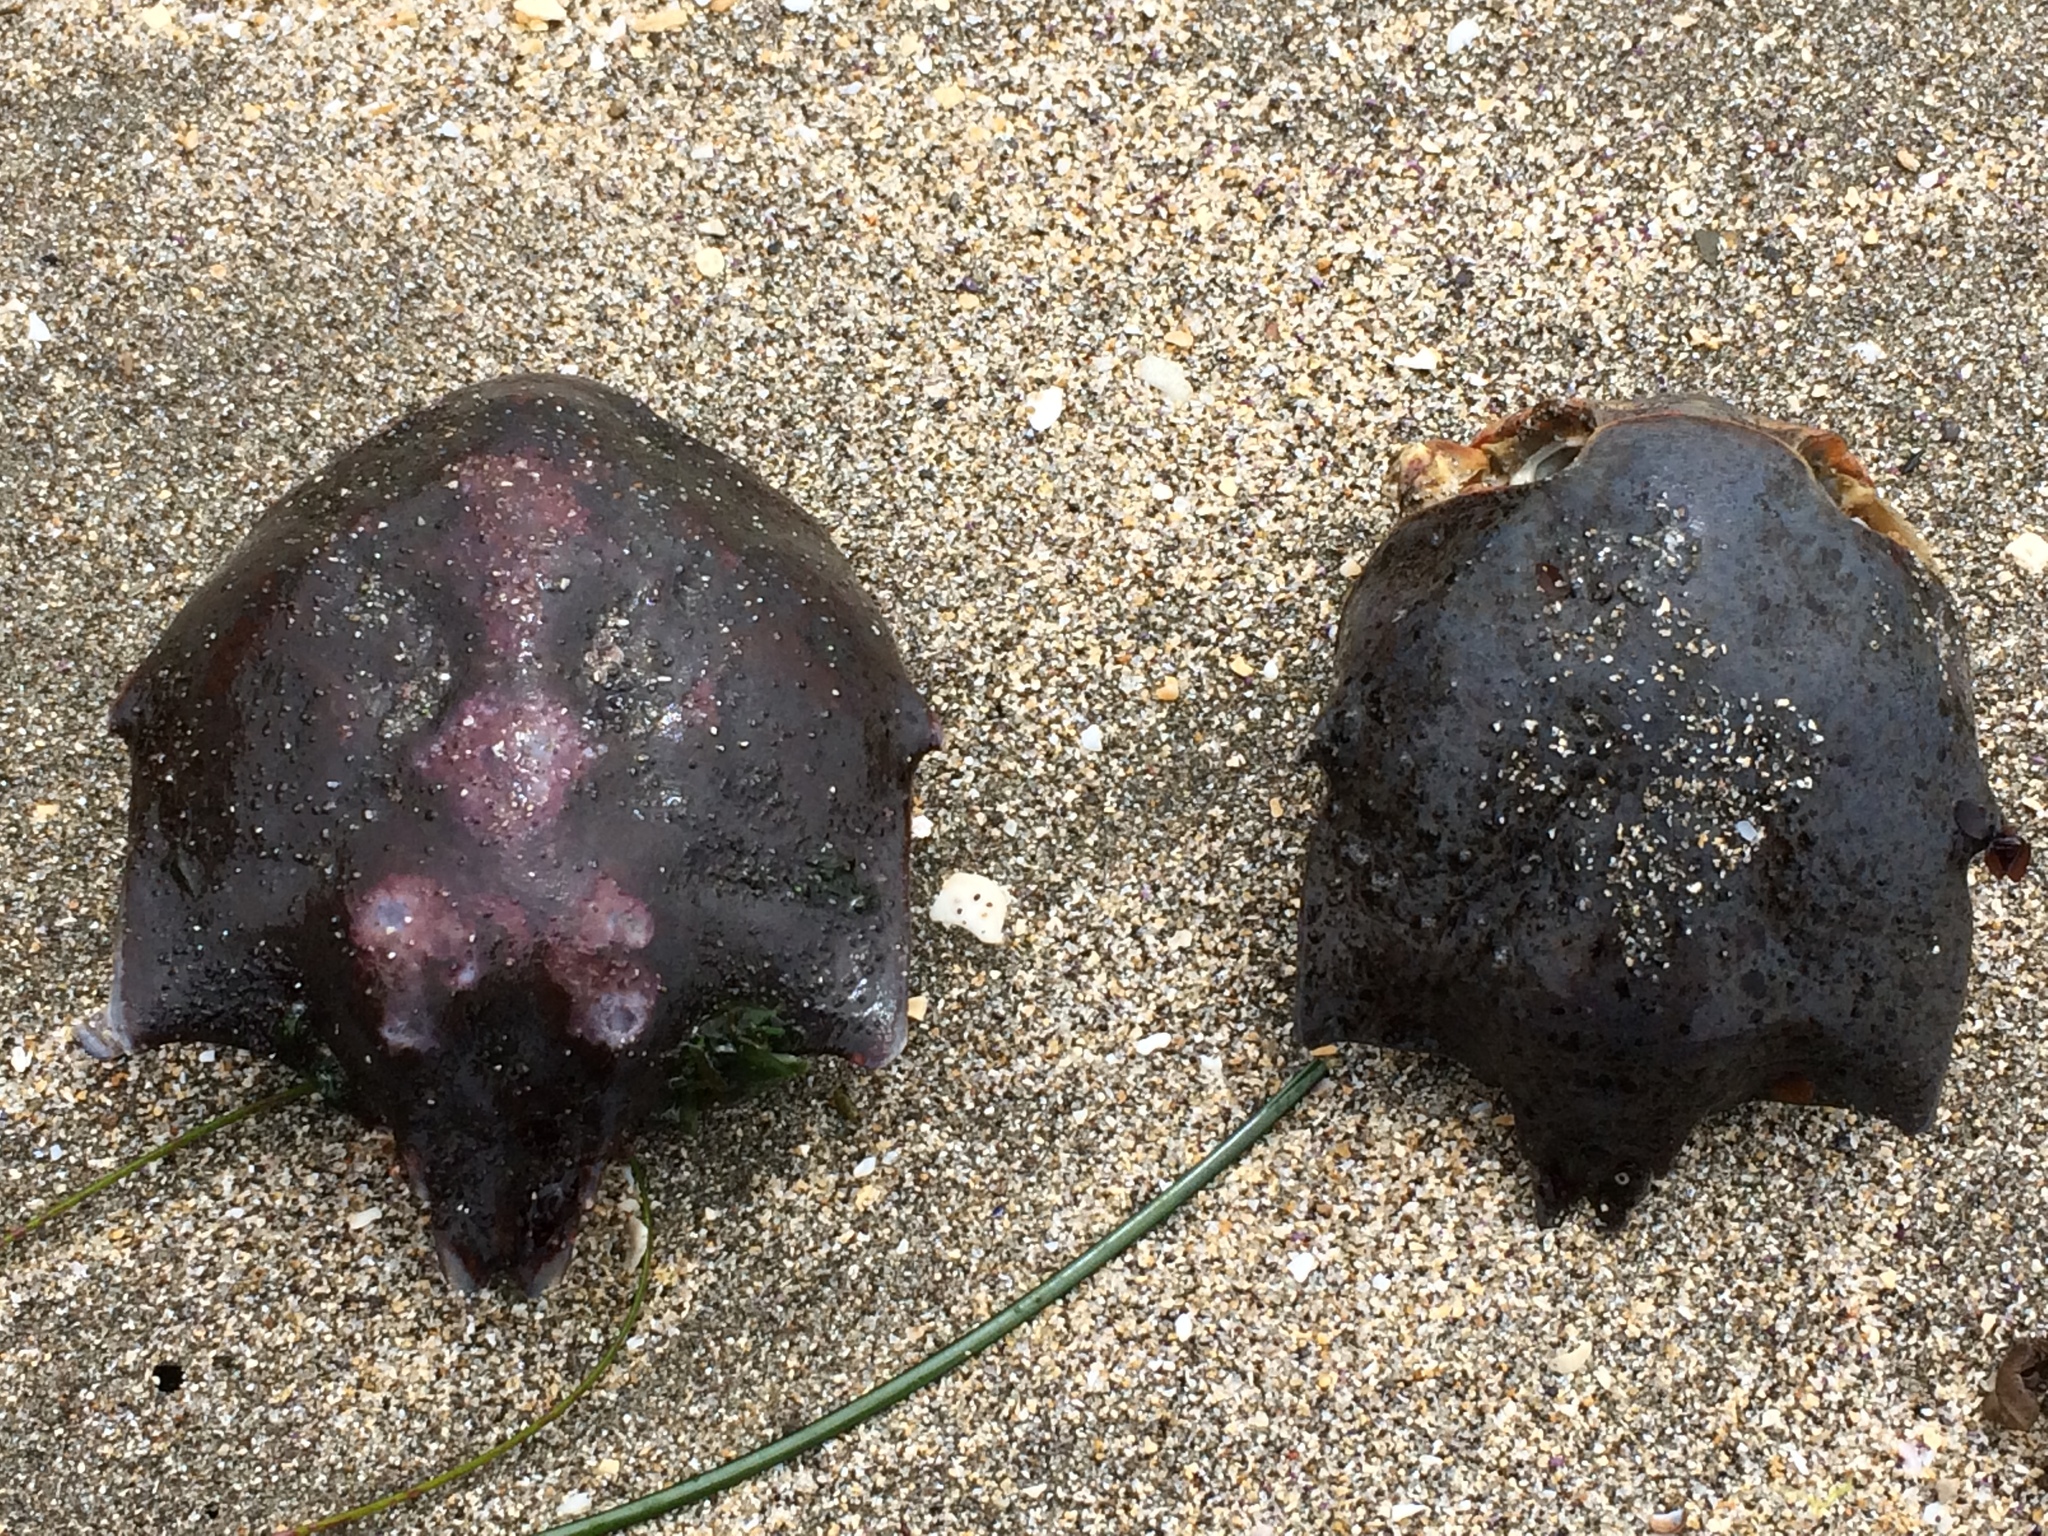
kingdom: Animalia
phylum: Arthropoda
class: Malacostraca
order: Decapoda
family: Epialtidae
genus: Pugettia
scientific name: Pugettia producta
